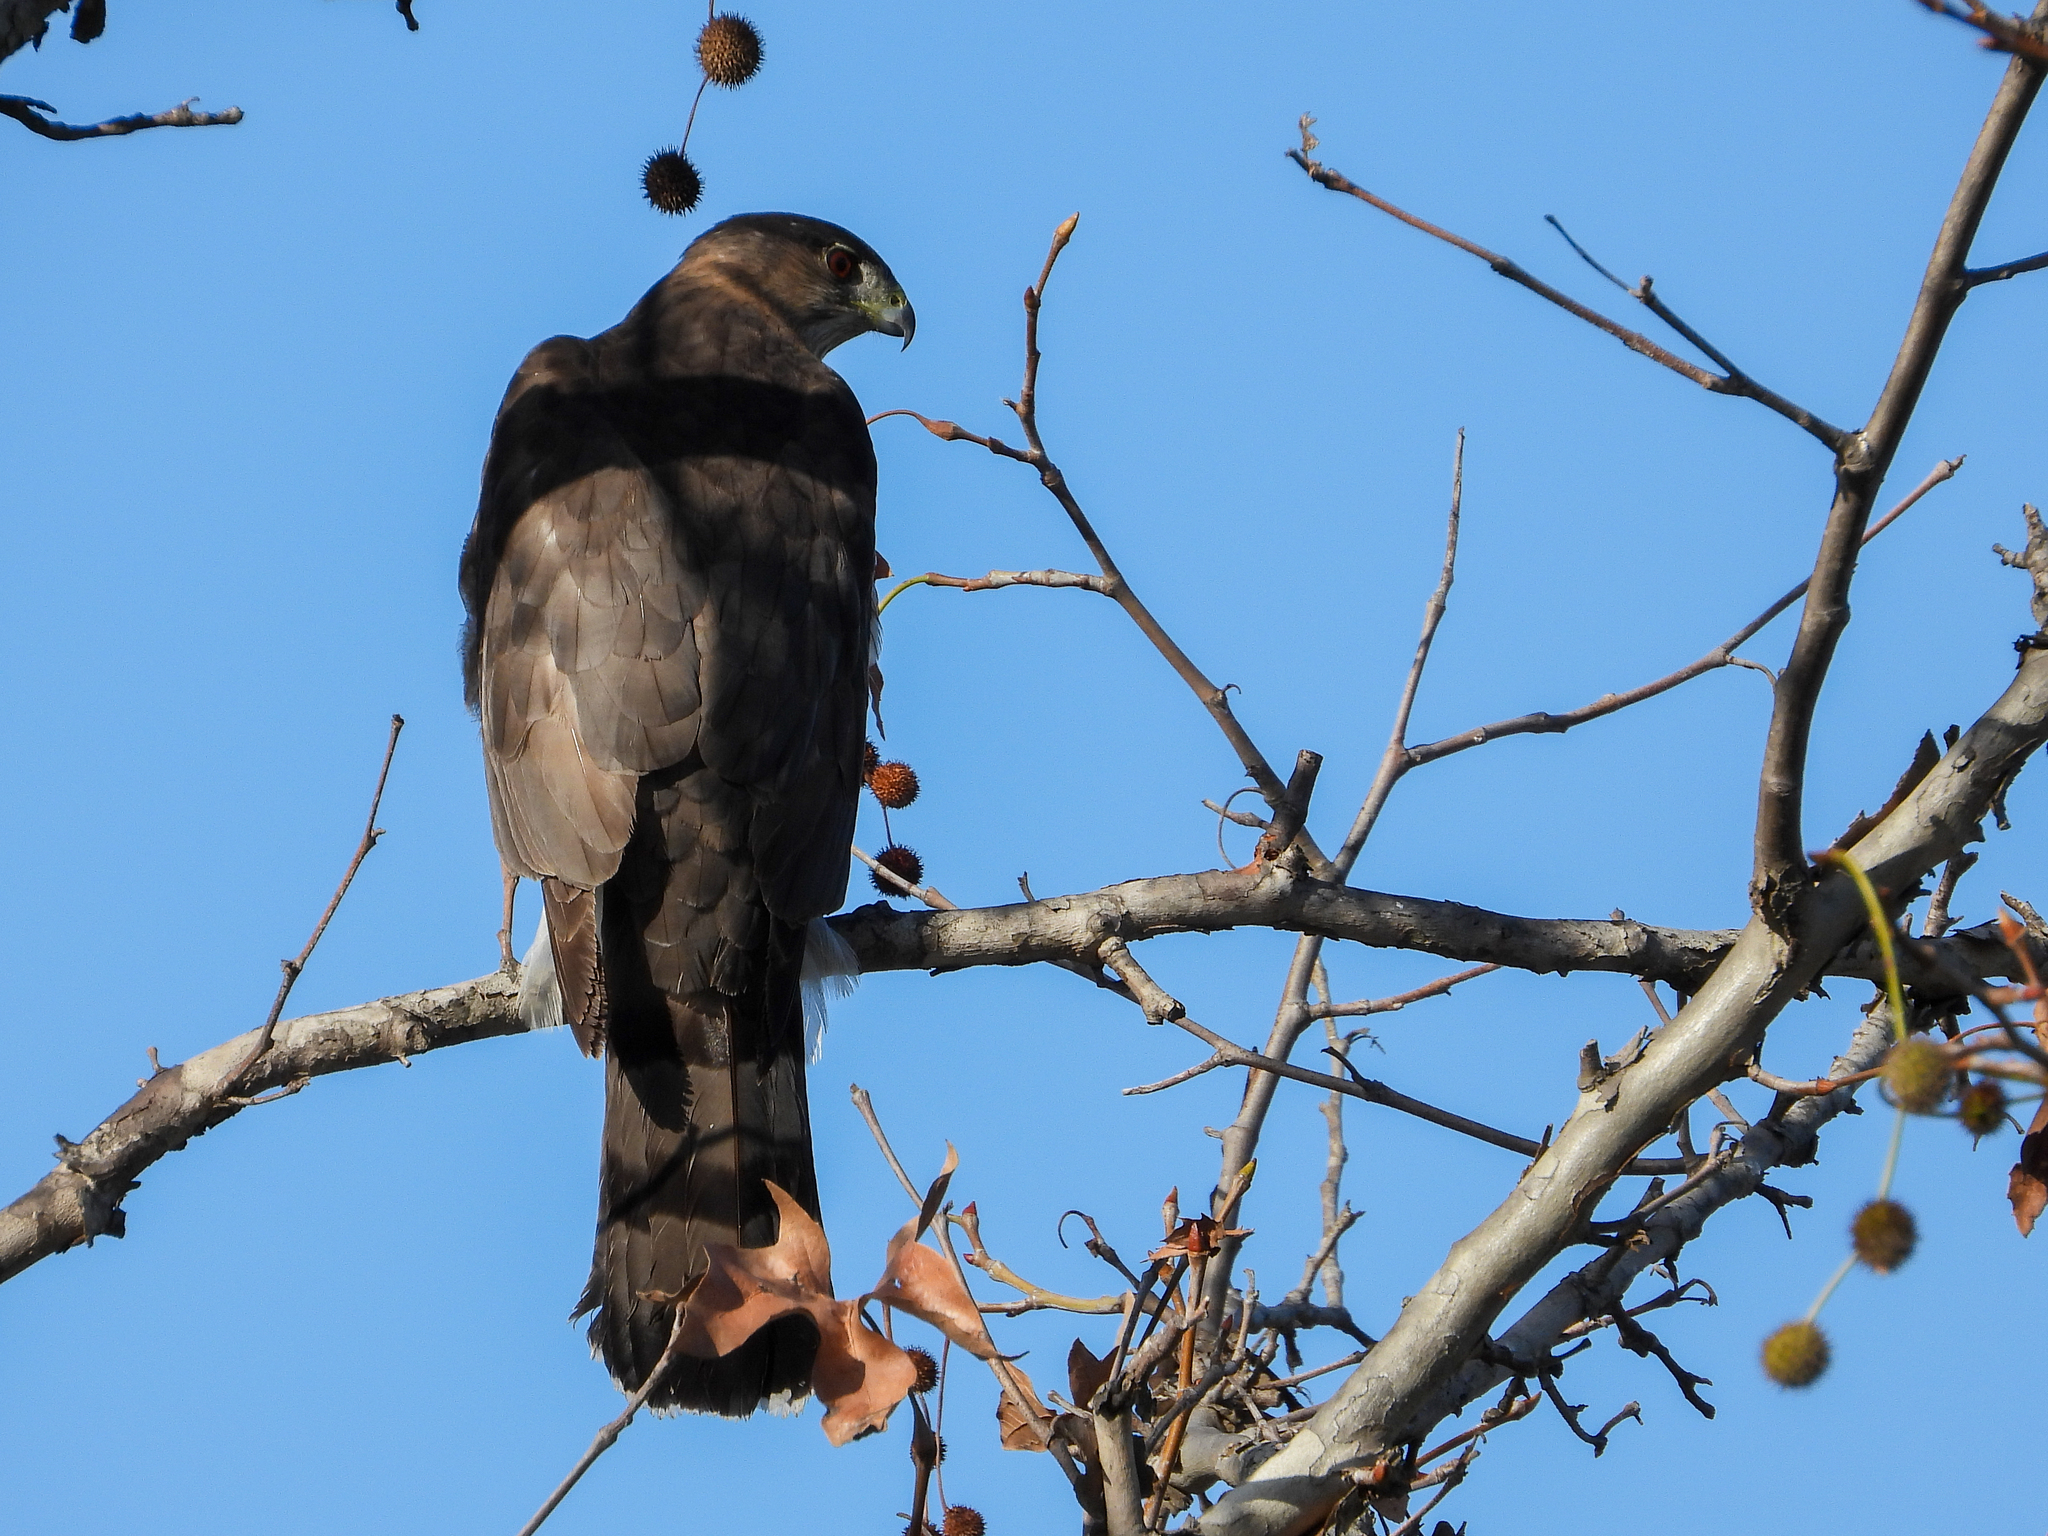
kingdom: Animalia
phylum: Chordata
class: Aves
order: Accipitriformes
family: Accipitridae
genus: Accipiter
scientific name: Accipiter cooperii
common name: Cooper's hawk
